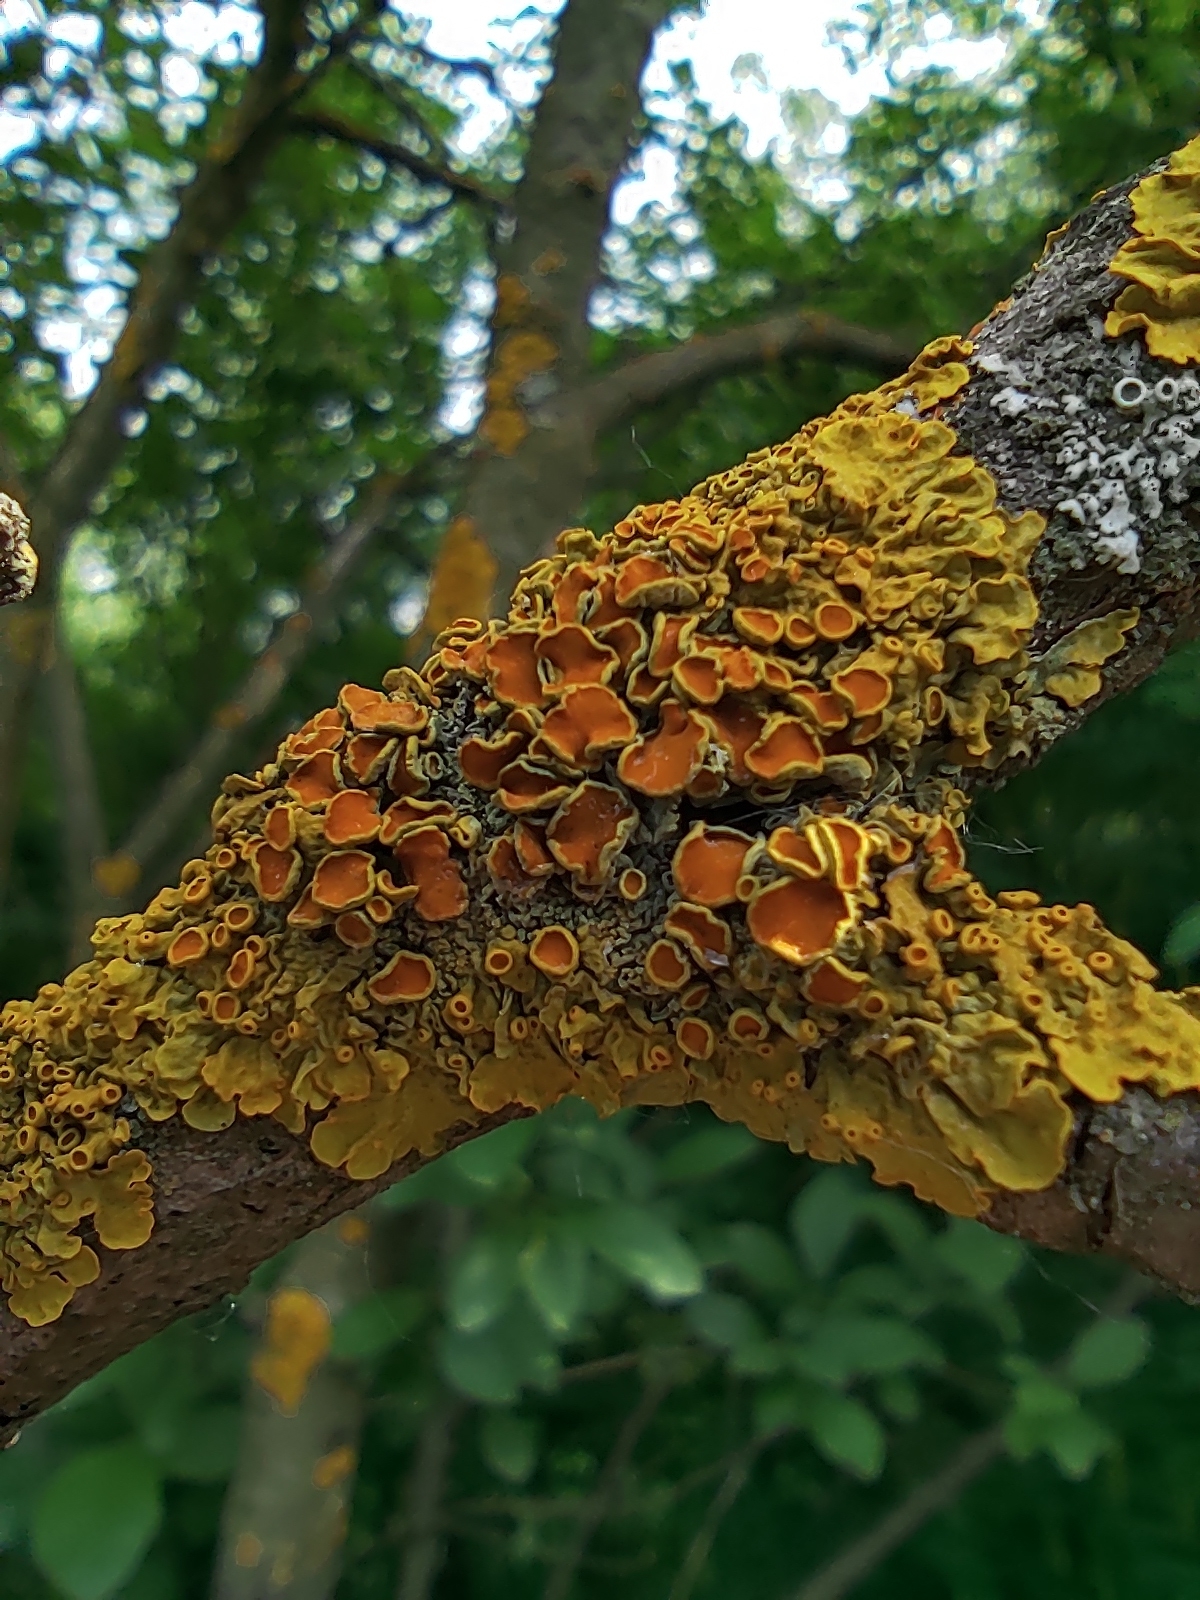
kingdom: Fungi
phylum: Ascomycota
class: Lecanoromycetes
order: Teloschistales
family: Teloschistaceae
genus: Xanthoria
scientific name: Xanthoria parietina
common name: Common orange lichen
